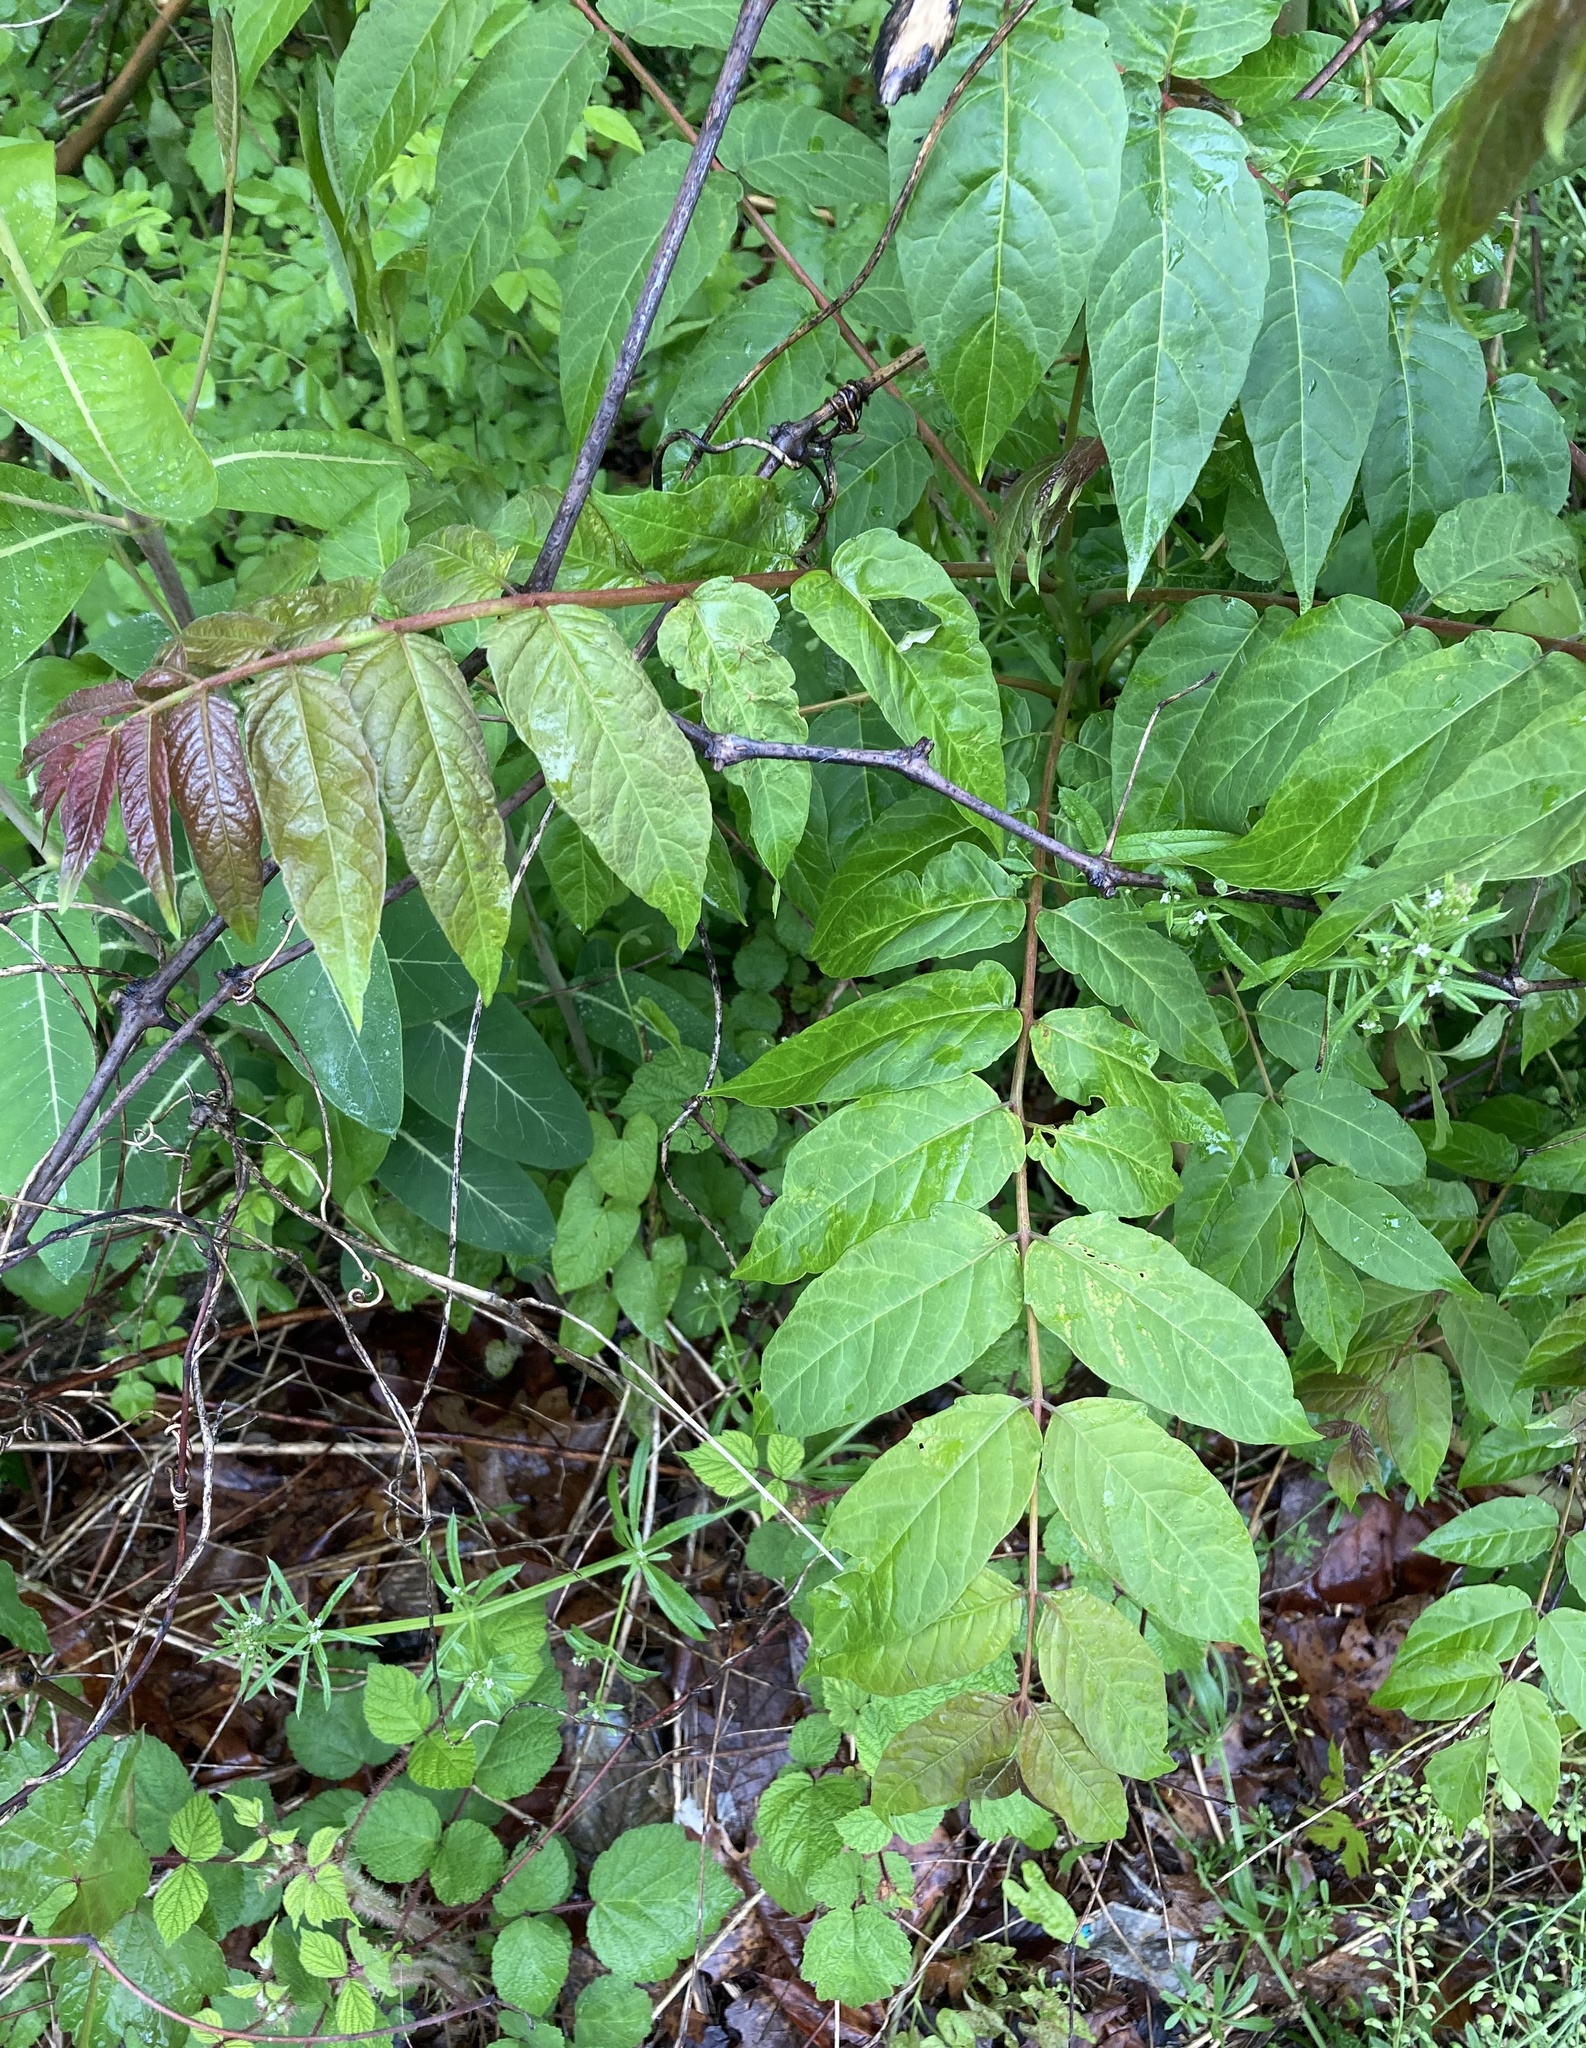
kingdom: Plantae
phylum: Tracheophyta
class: Magnoliopsida
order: Sapindales
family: Simaroubaceae
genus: Ailanthus
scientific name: Ailanthus altissima
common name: Tree-of-heaven
